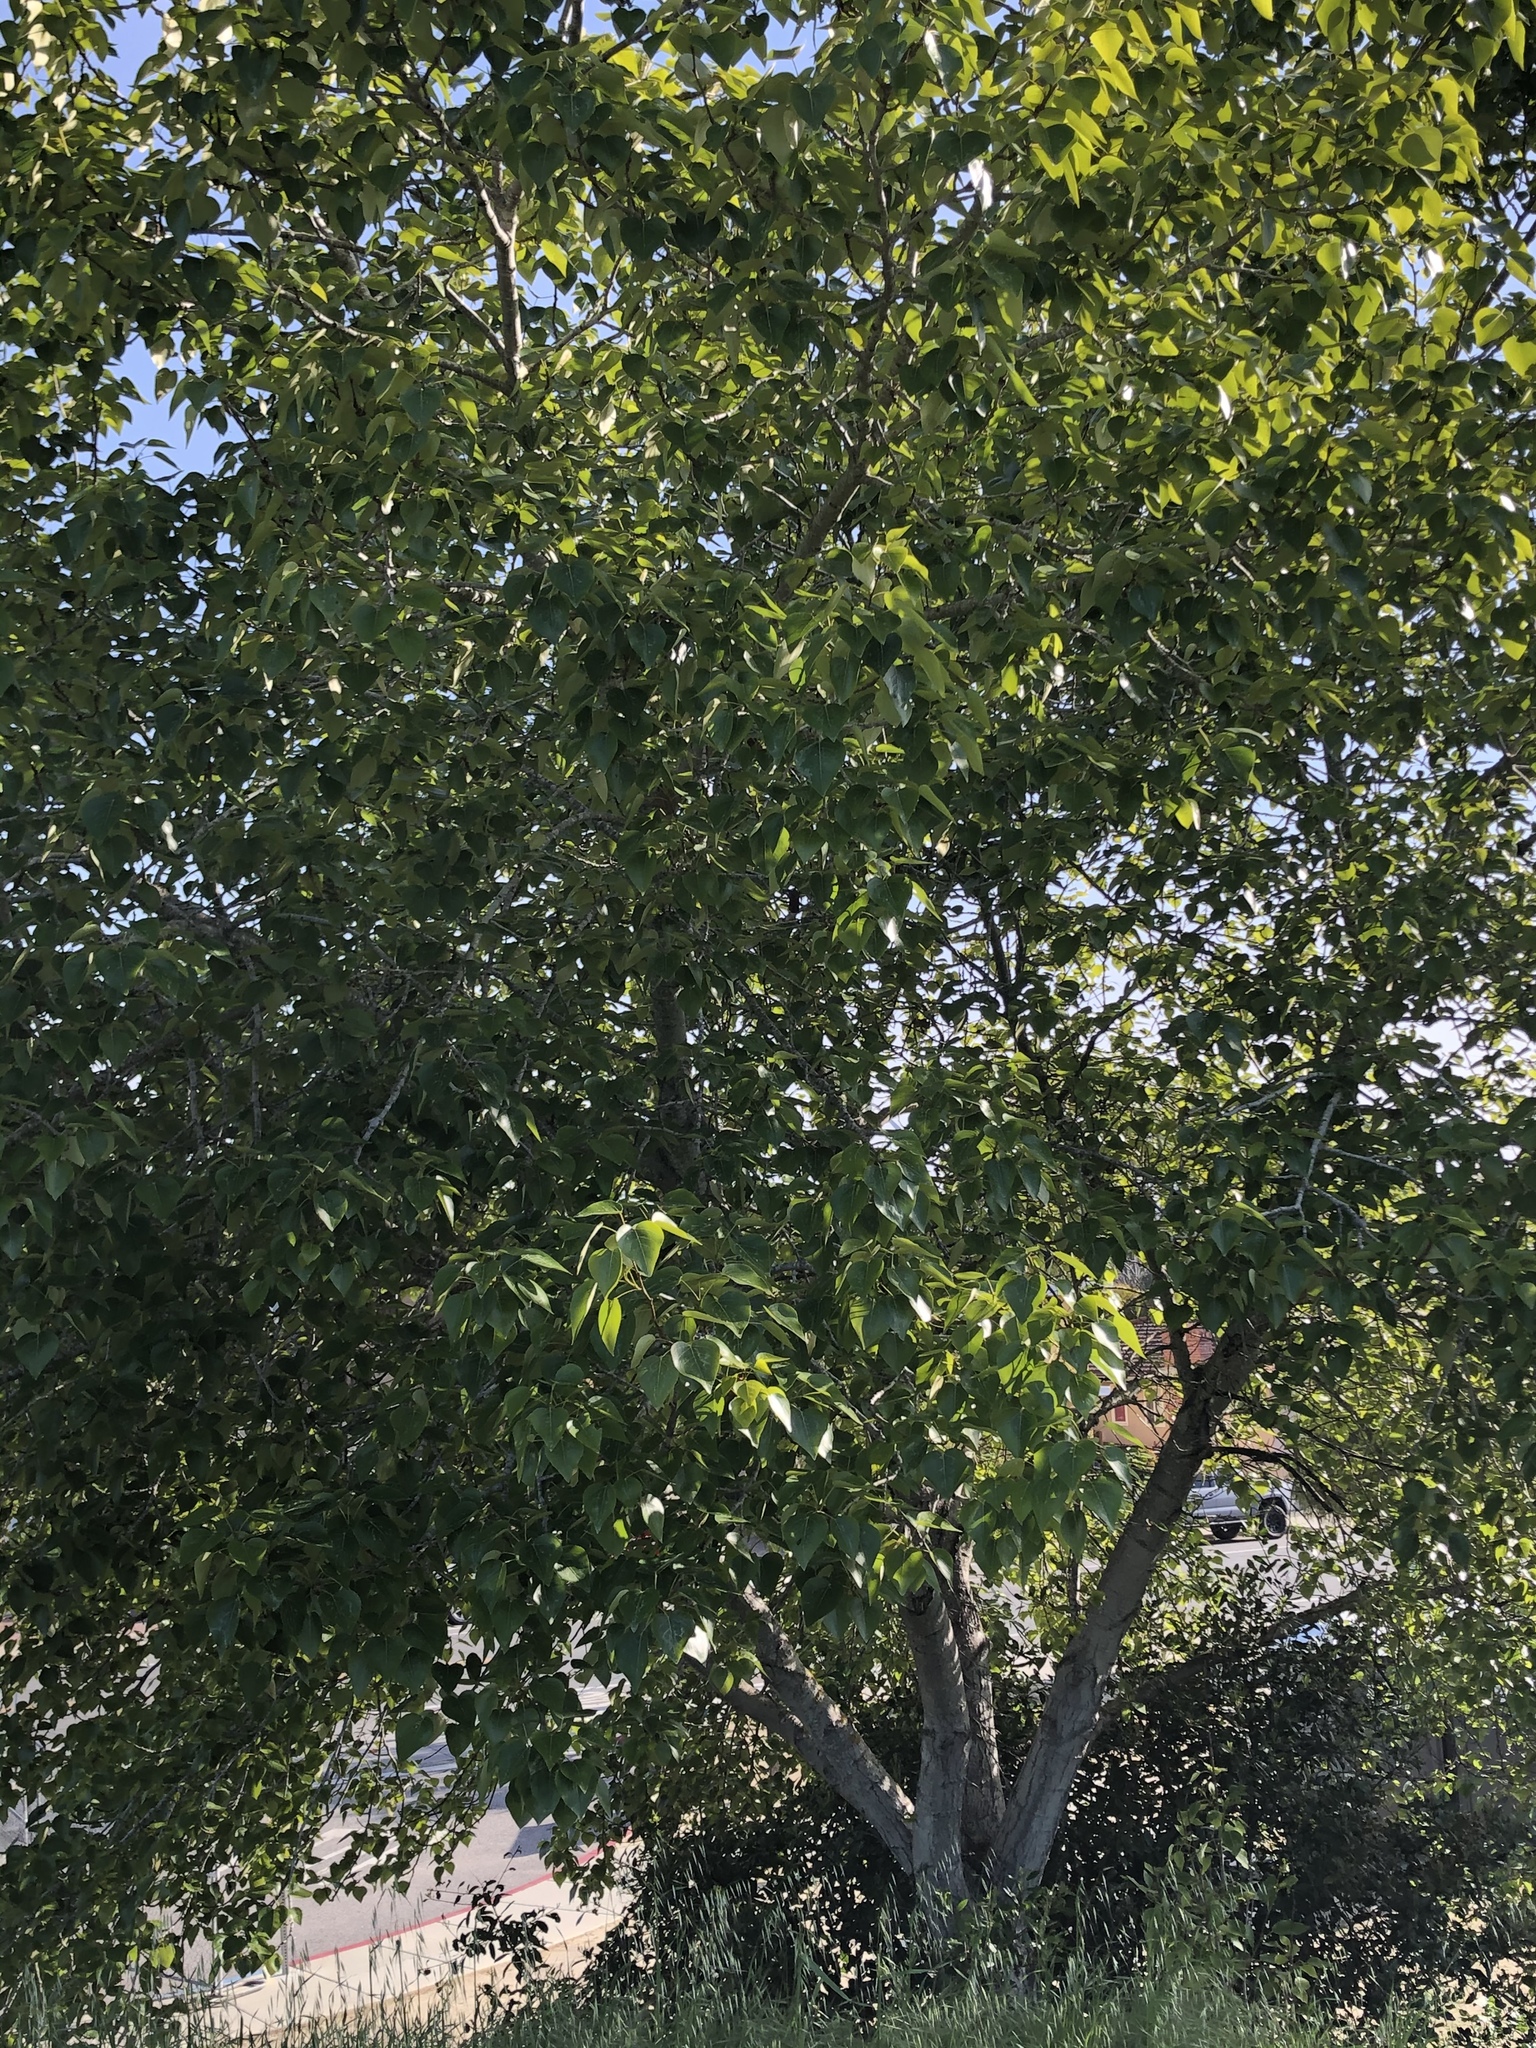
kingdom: Plantae
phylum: Tracheophyta
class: Magnoliopsida
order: Malpighiales
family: Salicaceae
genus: Populus
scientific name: Populus trichocarpa
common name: Black cottonwood
